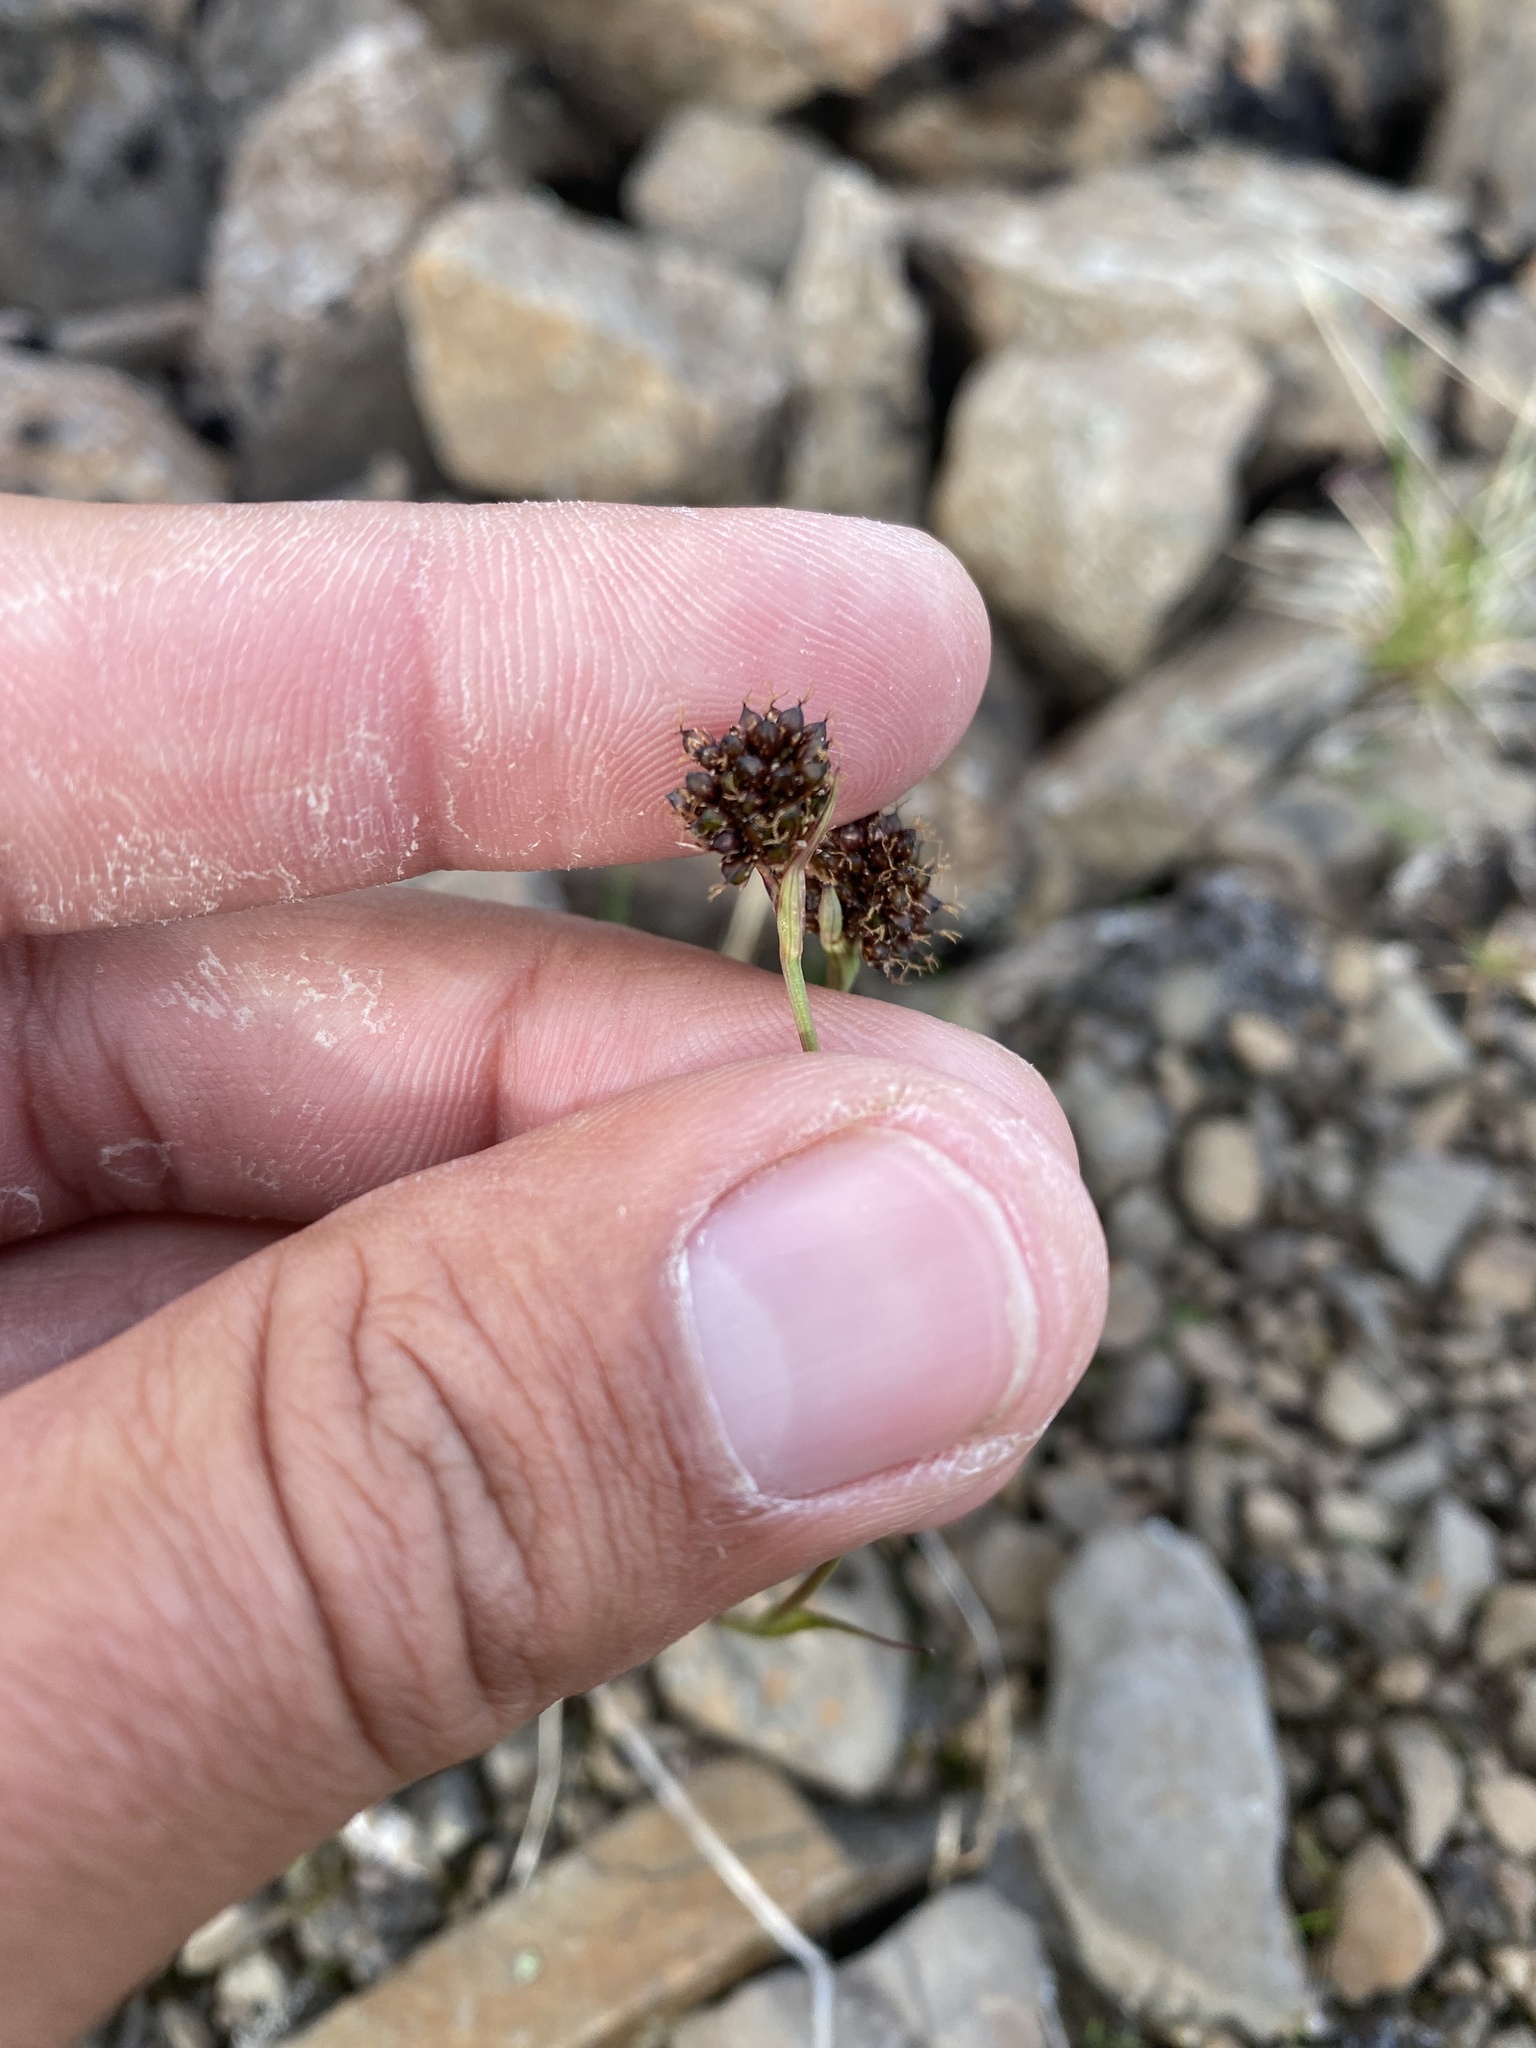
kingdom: Plantae
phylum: Tracheophyta
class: Liliopsida
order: Poales
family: Juncaceae
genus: Luzula
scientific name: Luzula nivalis
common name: Arctic woodrush
